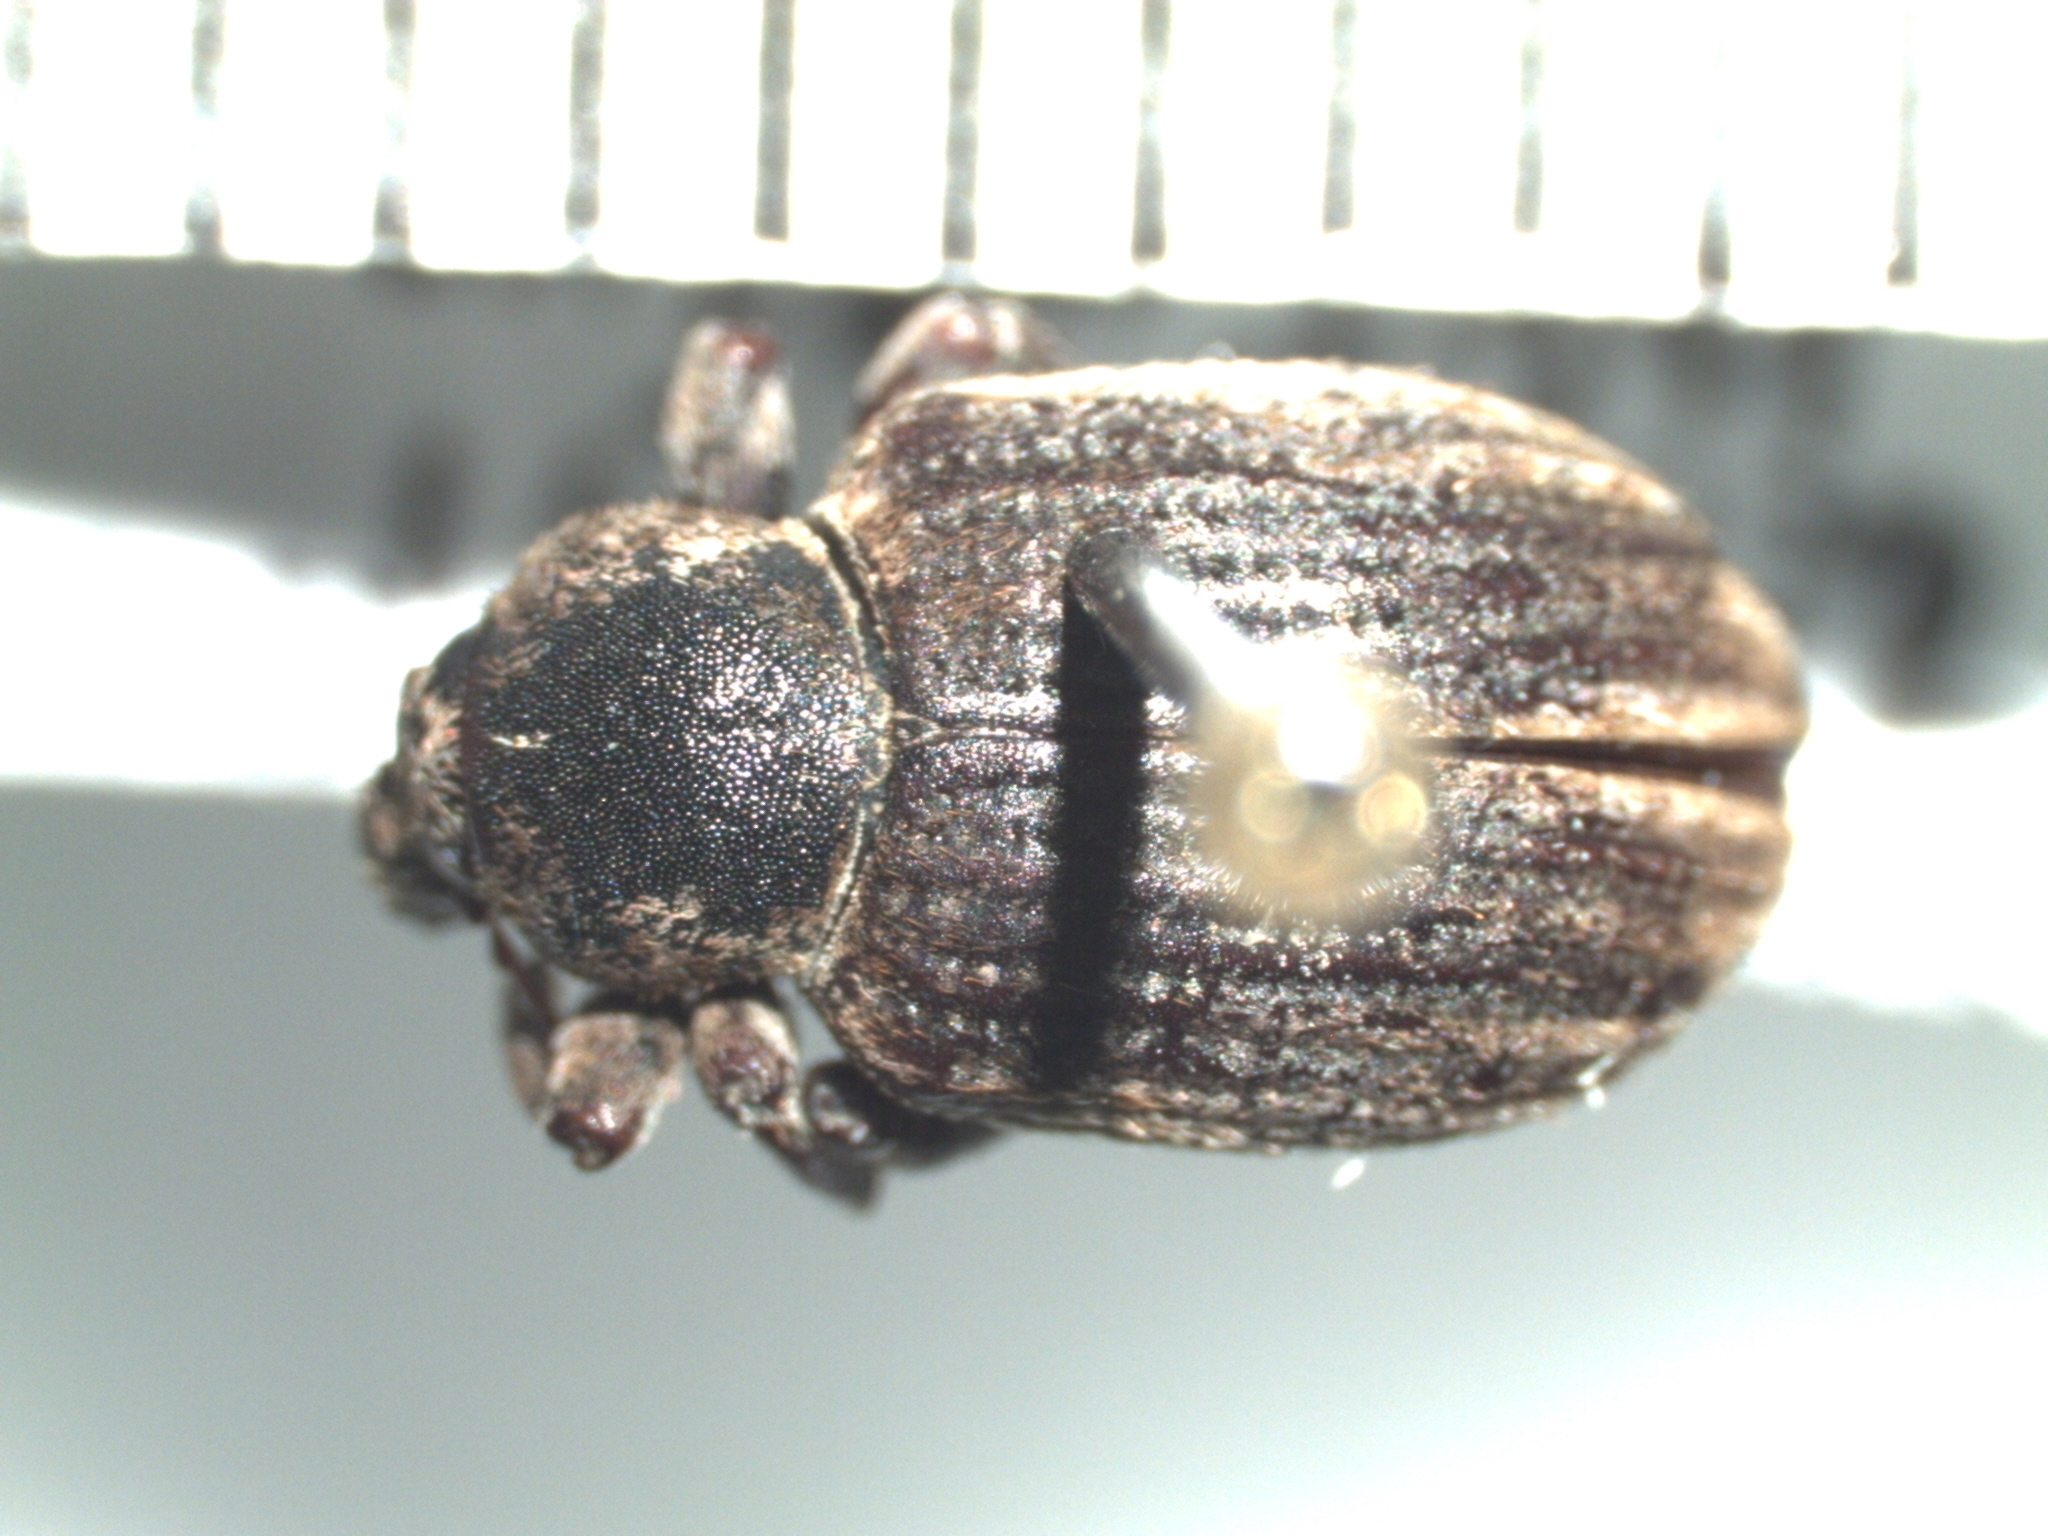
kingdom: Animalia
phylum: Arthropoda
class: Insecta
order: Coleoptera
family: Curculionidae
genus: Brachypera
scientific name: Brachypera zoilus
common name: Clover leaf weevil
